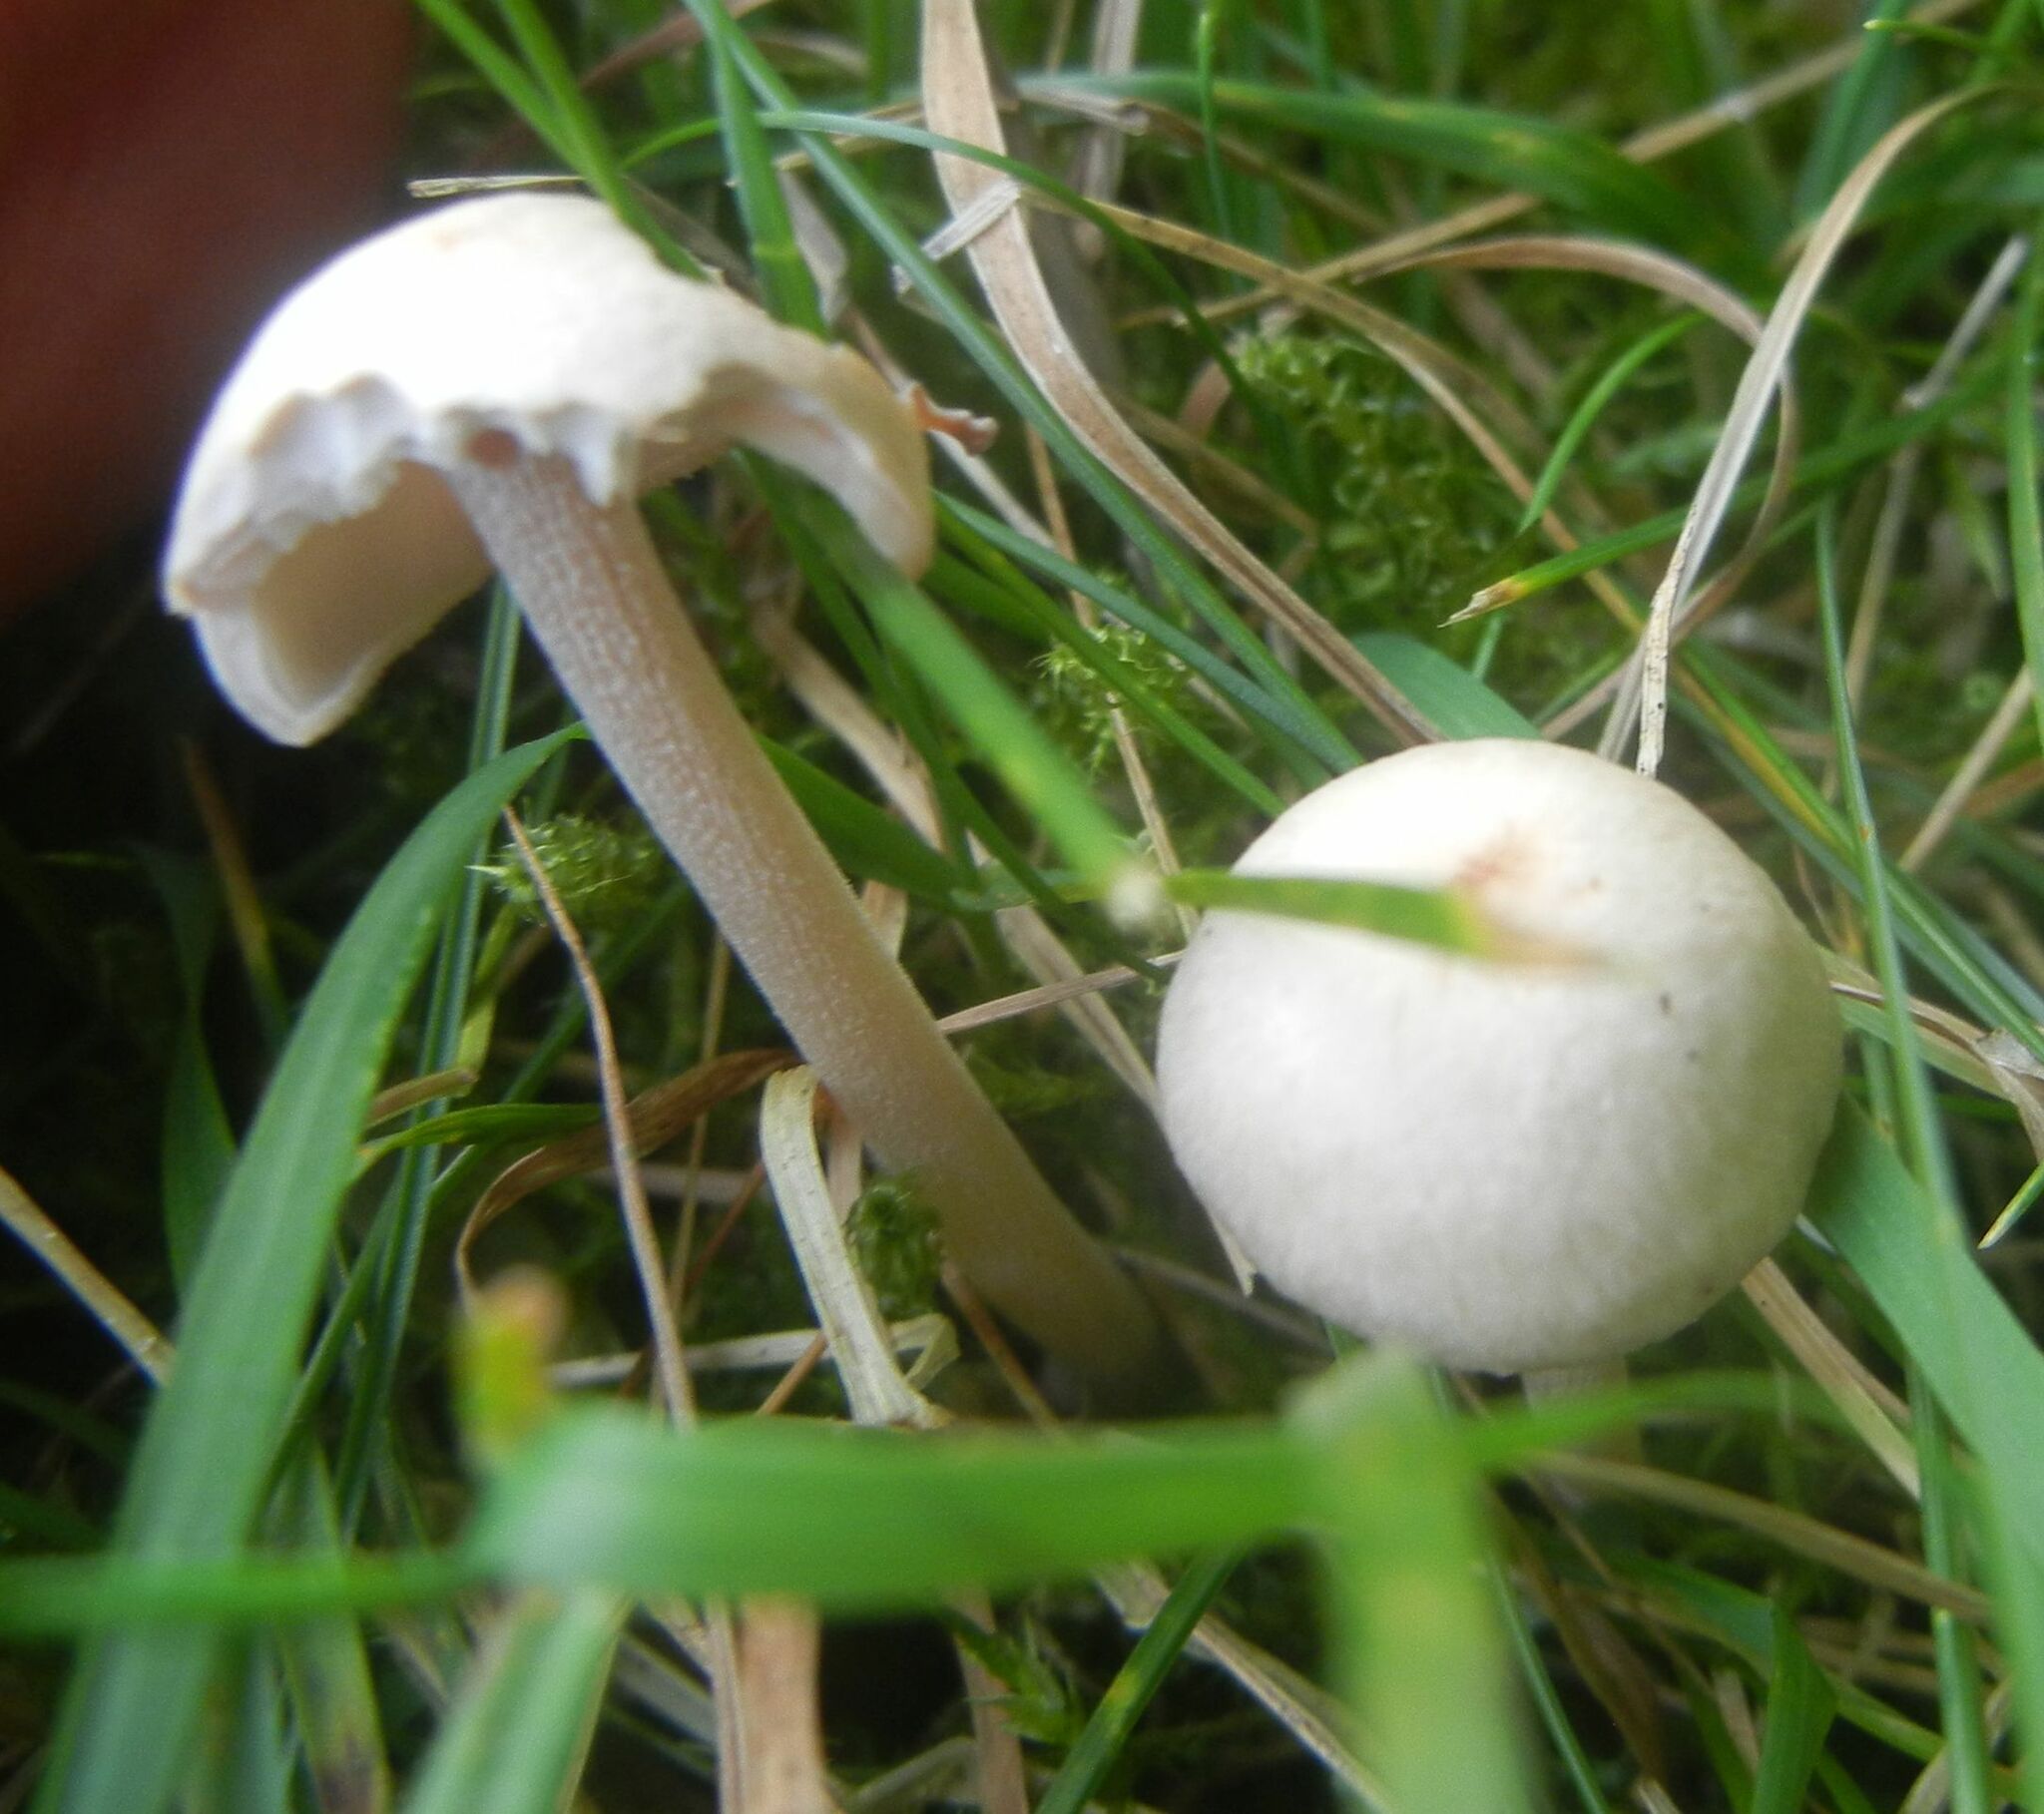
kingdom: Fungi
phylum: Basidiomycota
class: Agaricomycetes
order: Agaricales
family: Omphalotaceae
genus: Collybiopsis
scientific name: Collybiopsis confluens
